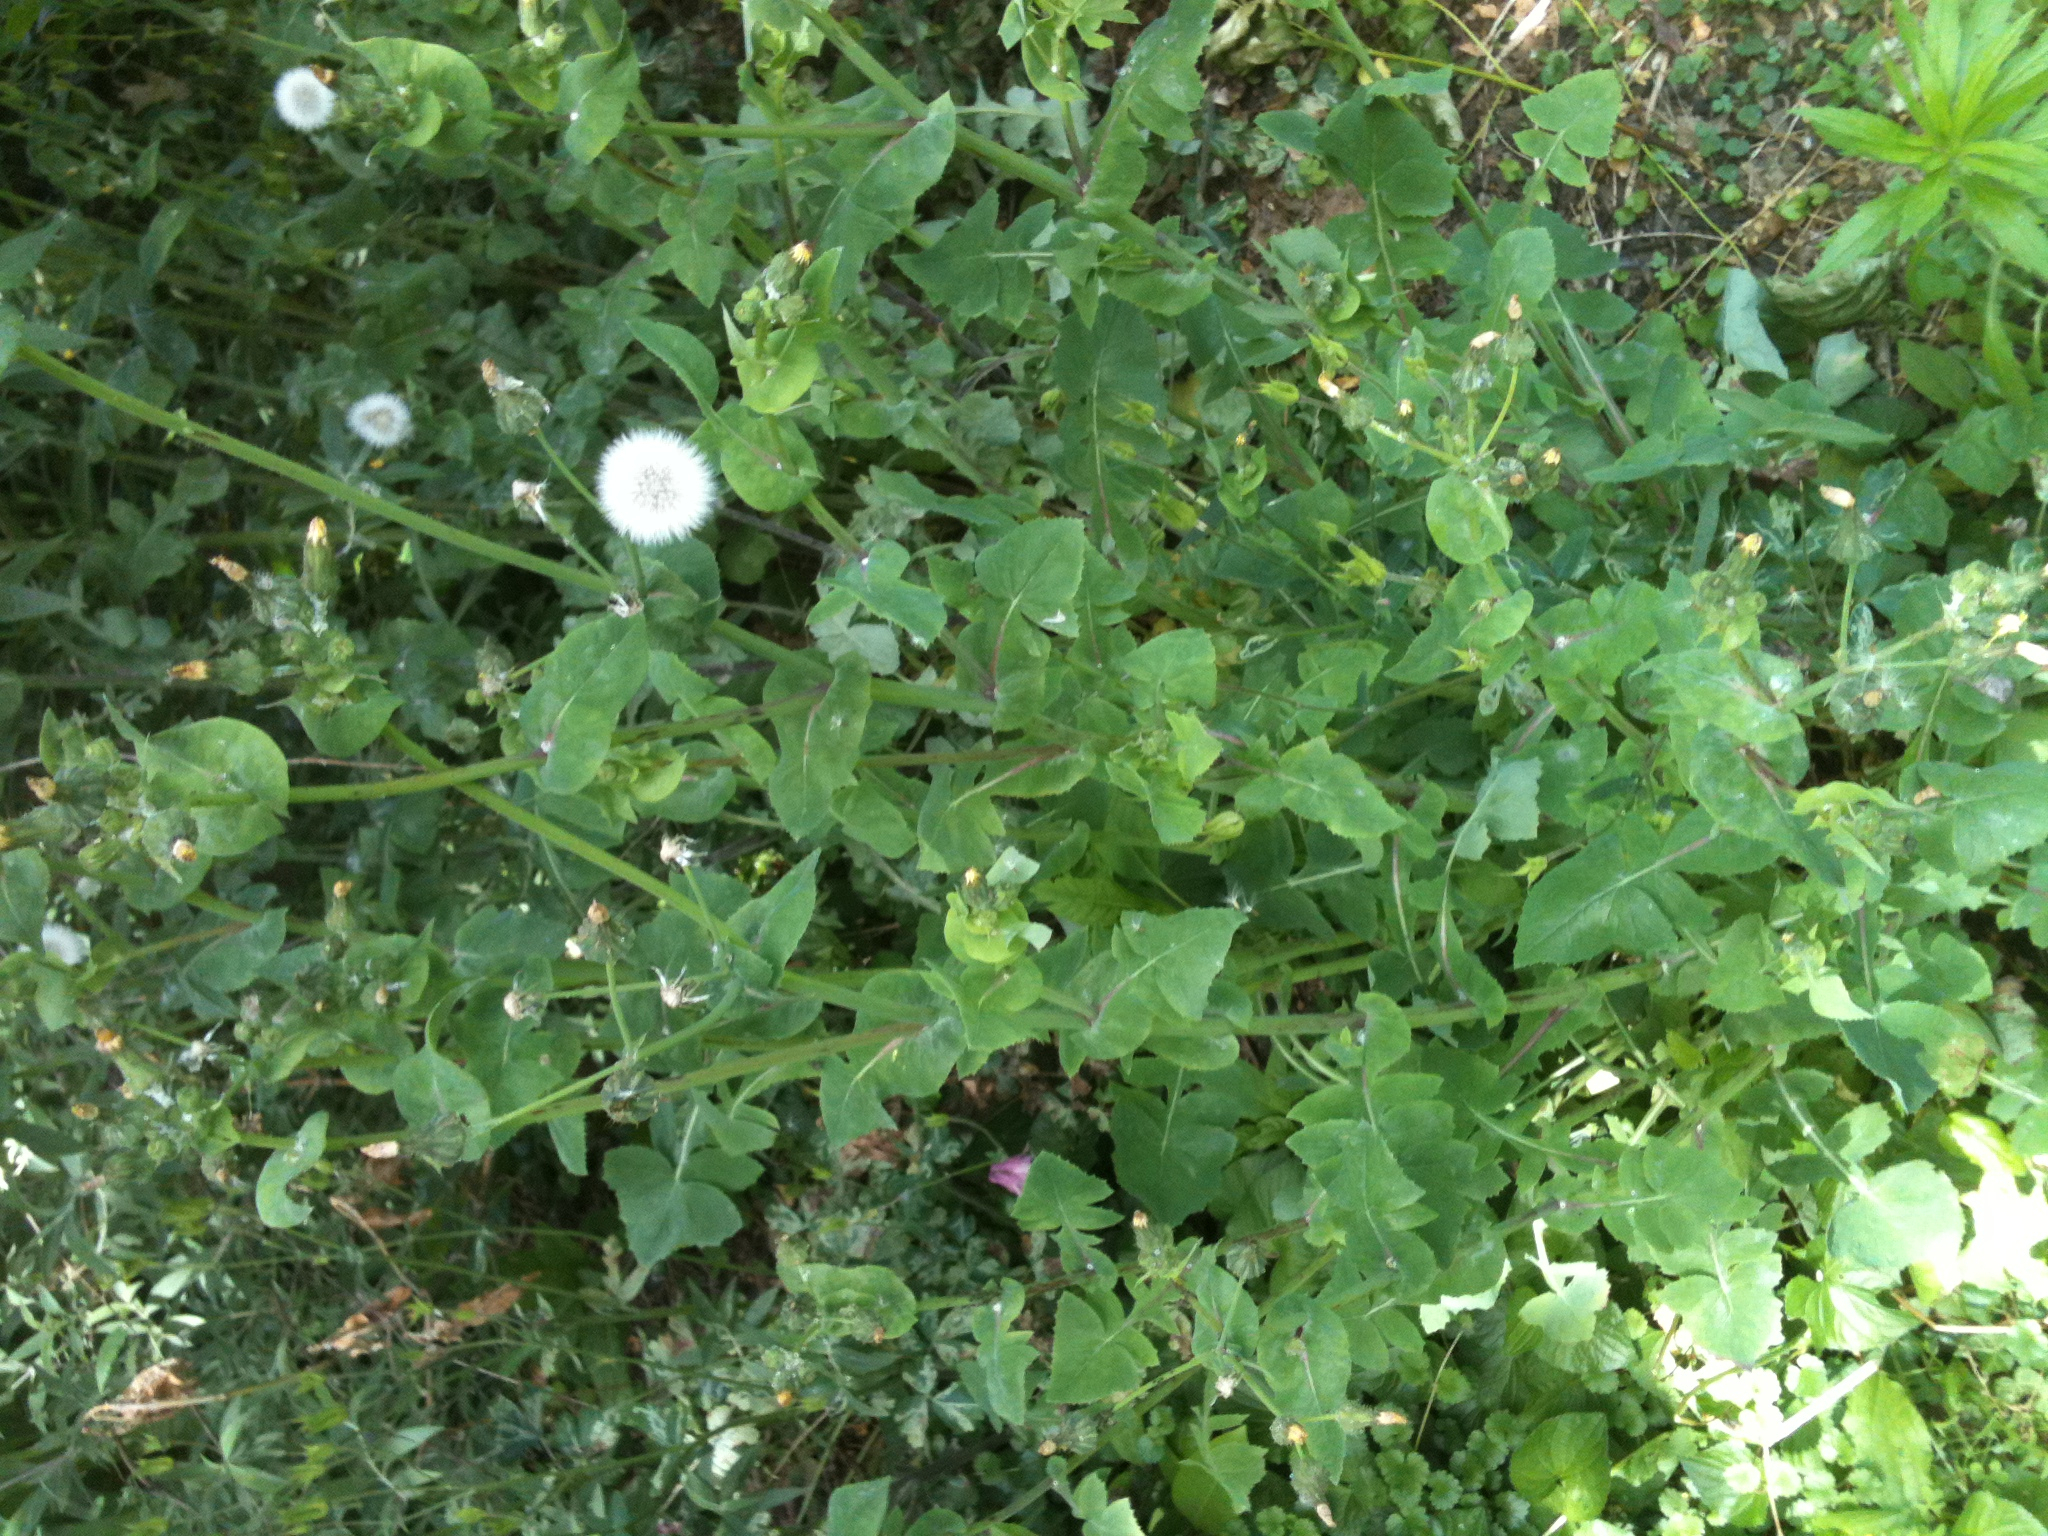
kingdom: Plantae
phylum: Tracheophyta
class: Magnoliopsida
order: Asterales
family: Asteraceae
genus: Sonchus
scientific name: Sonchus oleraceus
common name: Common sowthistle
